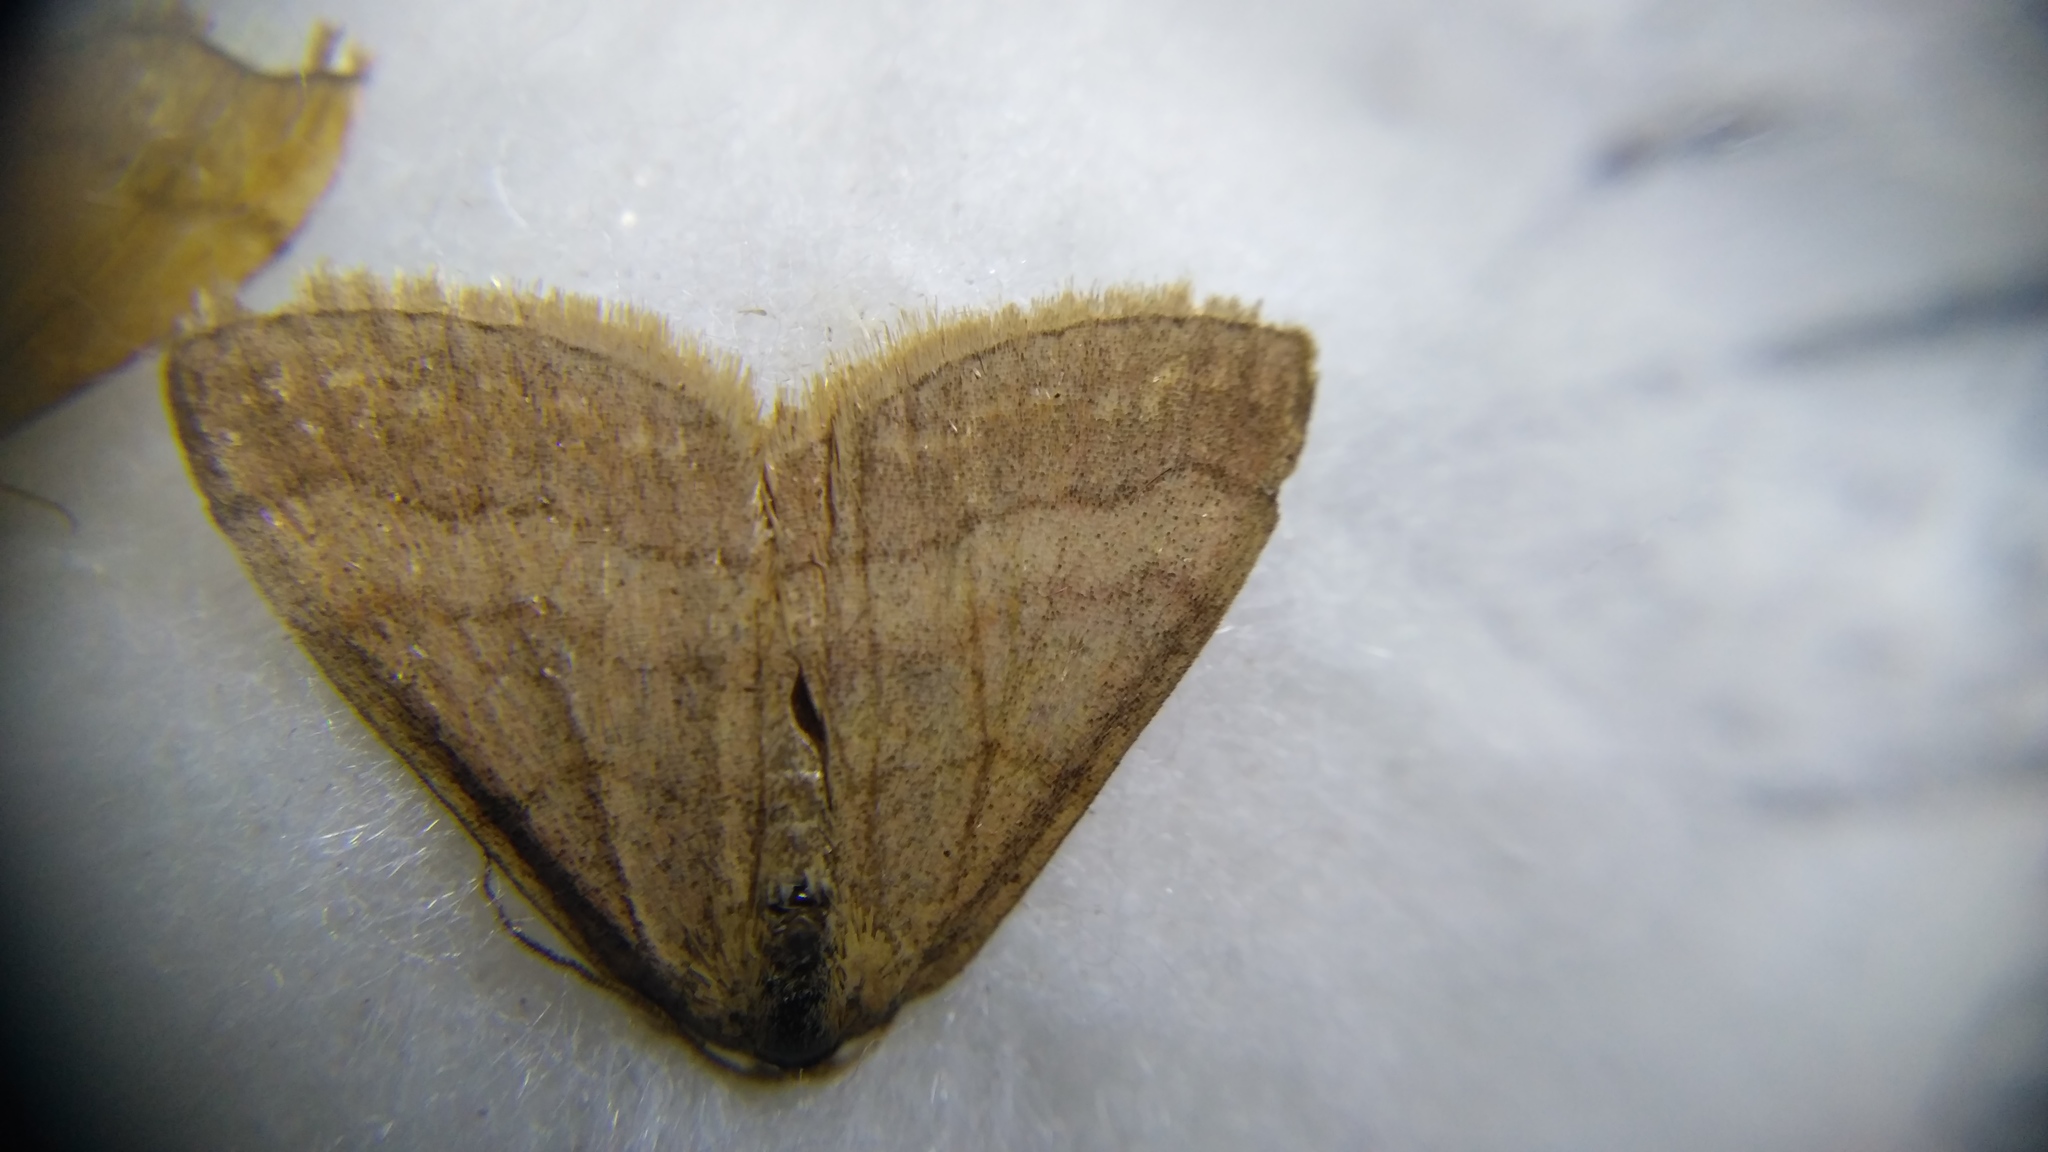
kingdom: Animalia
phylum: Arthropoda
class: Insecta
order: Lepidoptera
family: Geometridae
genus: Scopula
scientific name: Scopula rubiginata
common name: Tawny wave
